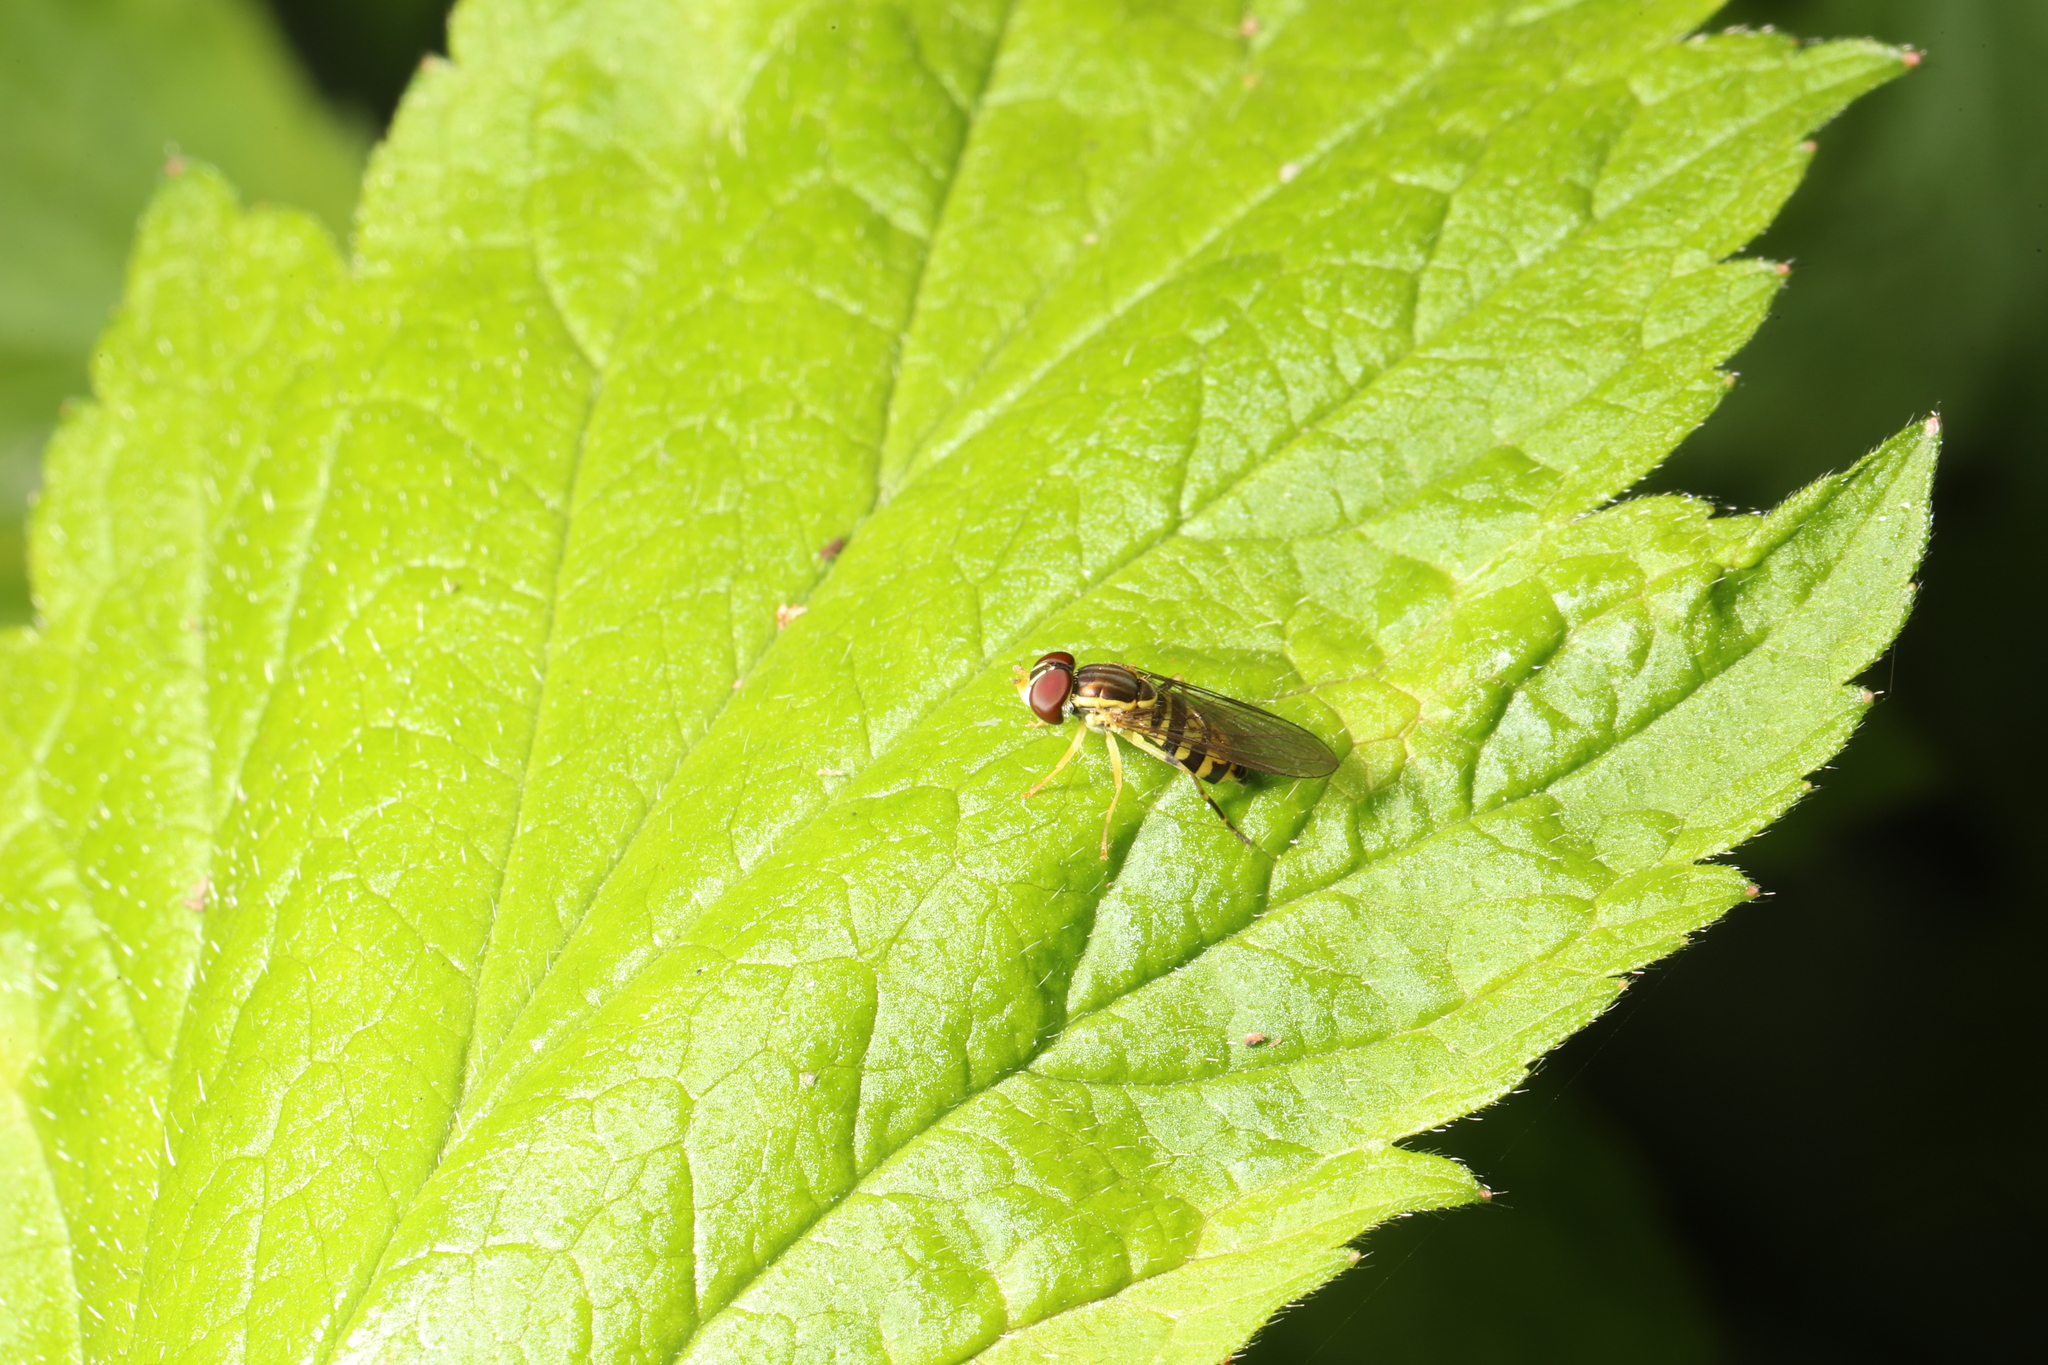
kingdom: Animalia
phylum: Arthropoda
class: Insecta
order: Diptera
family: Syrphidae
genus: Toxomerus
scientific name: Toxomerus geminatus
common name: Eastern calligrapher
